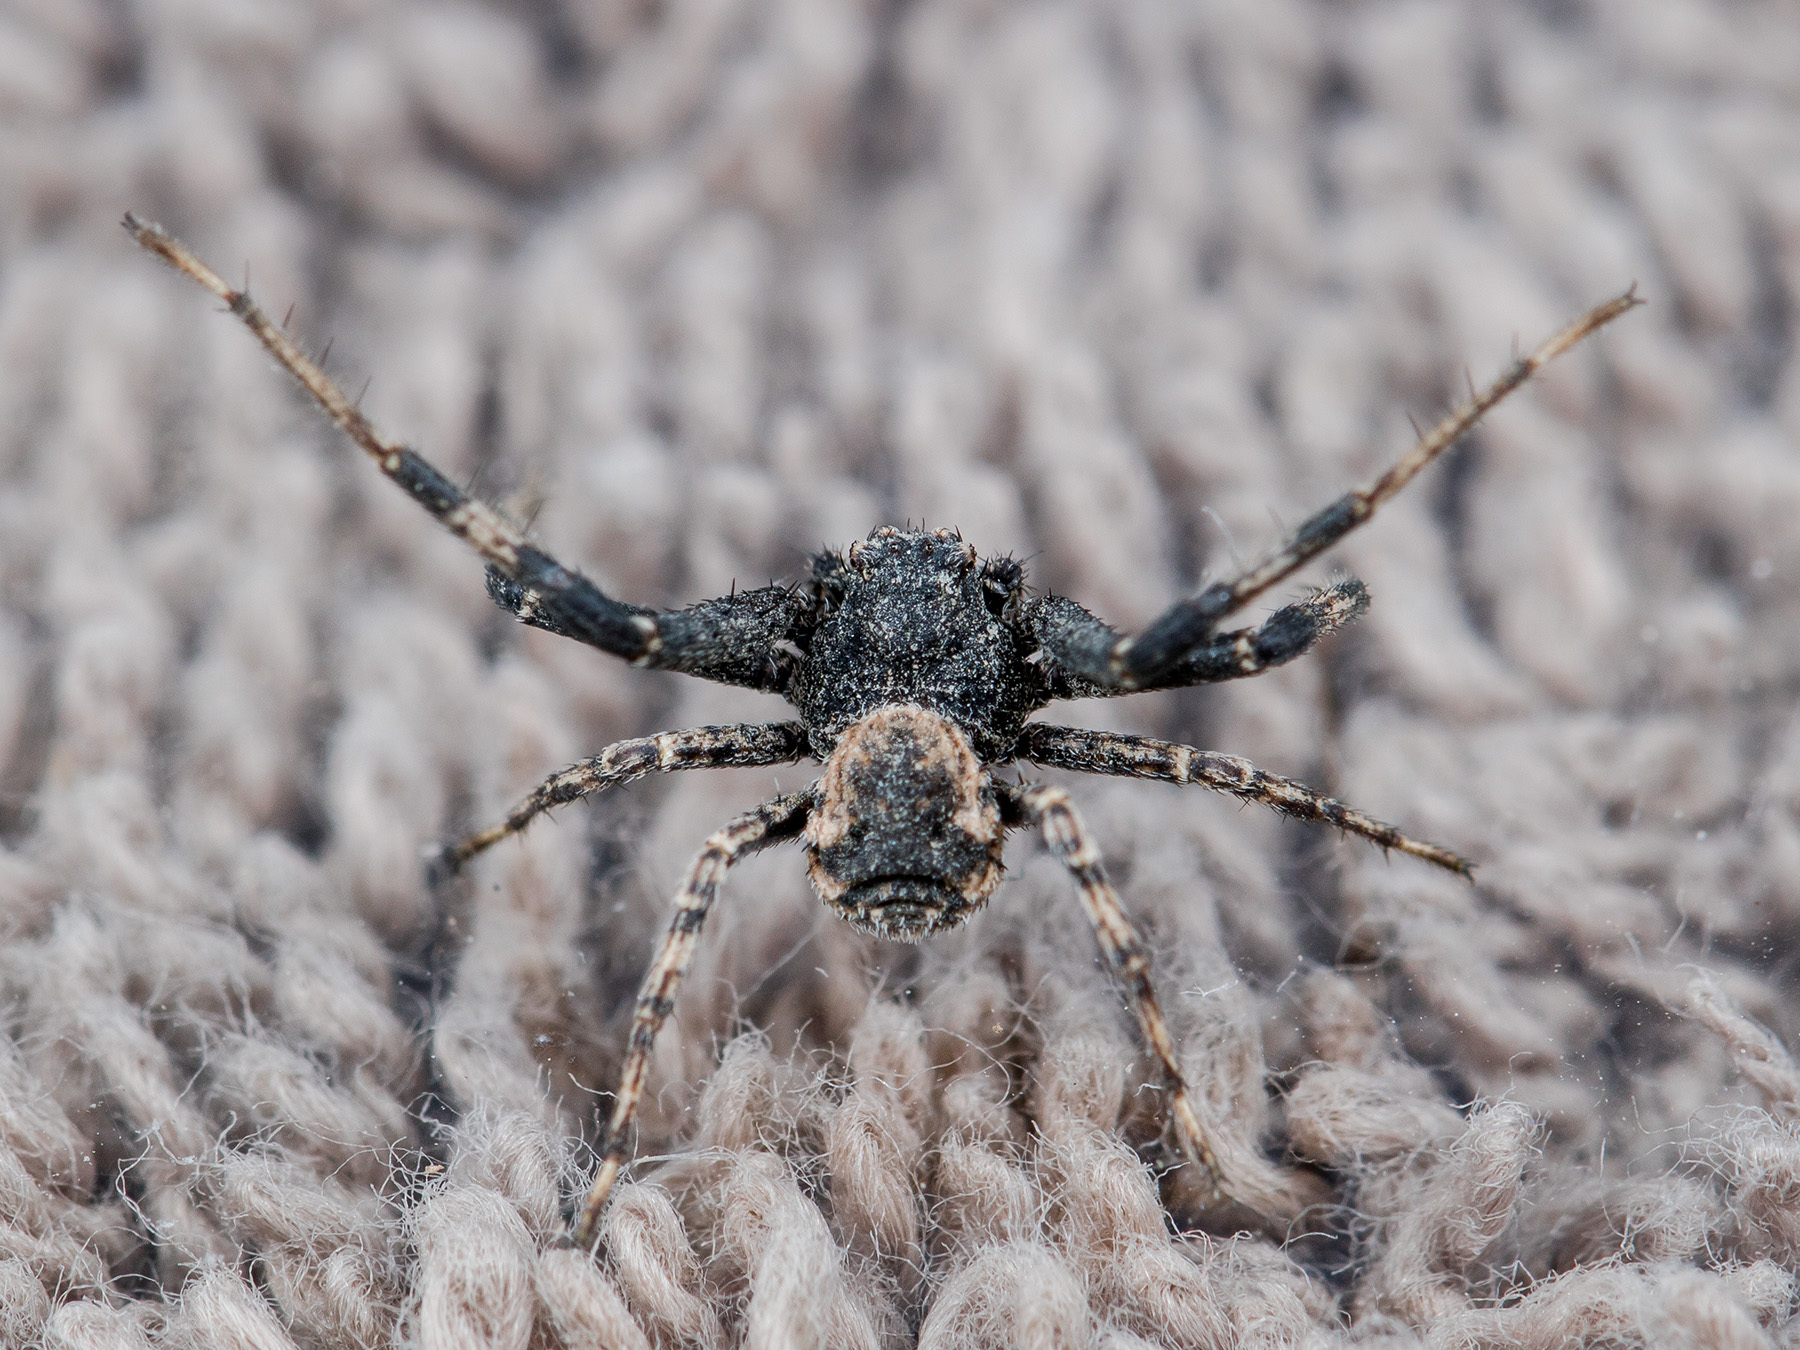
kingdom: Animalia
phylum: Arthropoda
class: Arachnida
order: Araneae
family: Thomisidae
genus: Ozyptila
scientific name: Ozyptila lugubris
